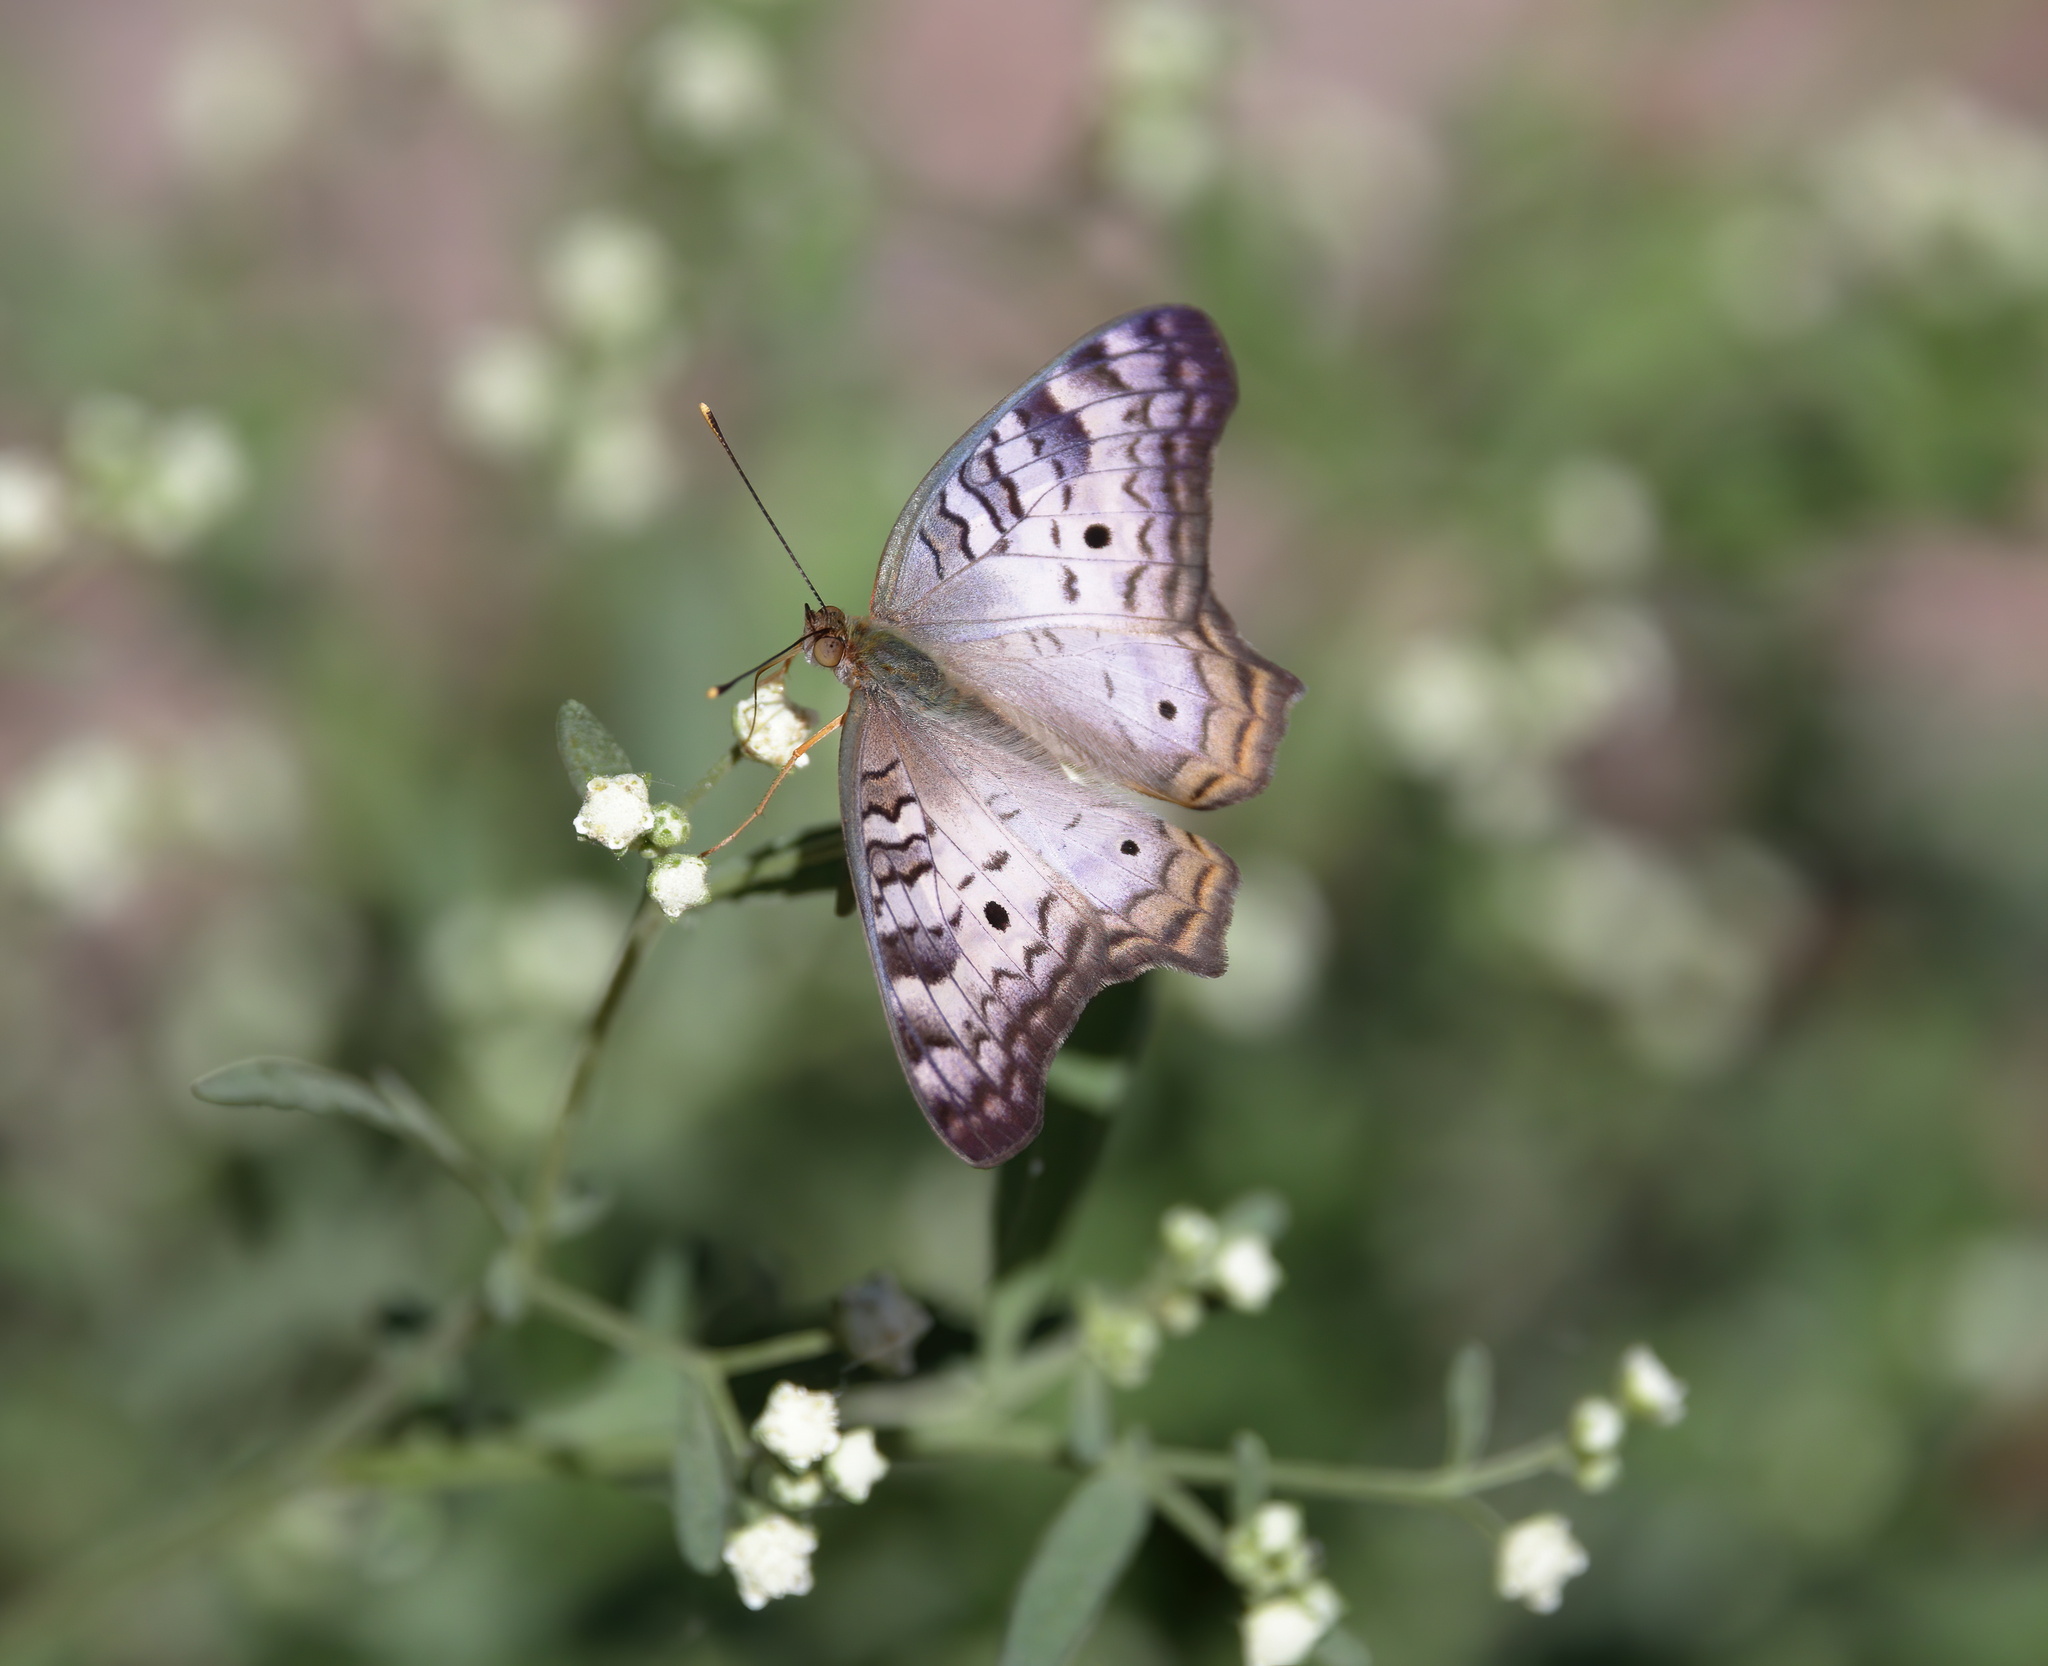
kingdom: Animalia
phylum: Arthropoda
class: Insecta
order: Lepidoptera
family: Nymphalidae
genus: Anartia
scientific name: Anartia jatrophae
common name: White peacock
